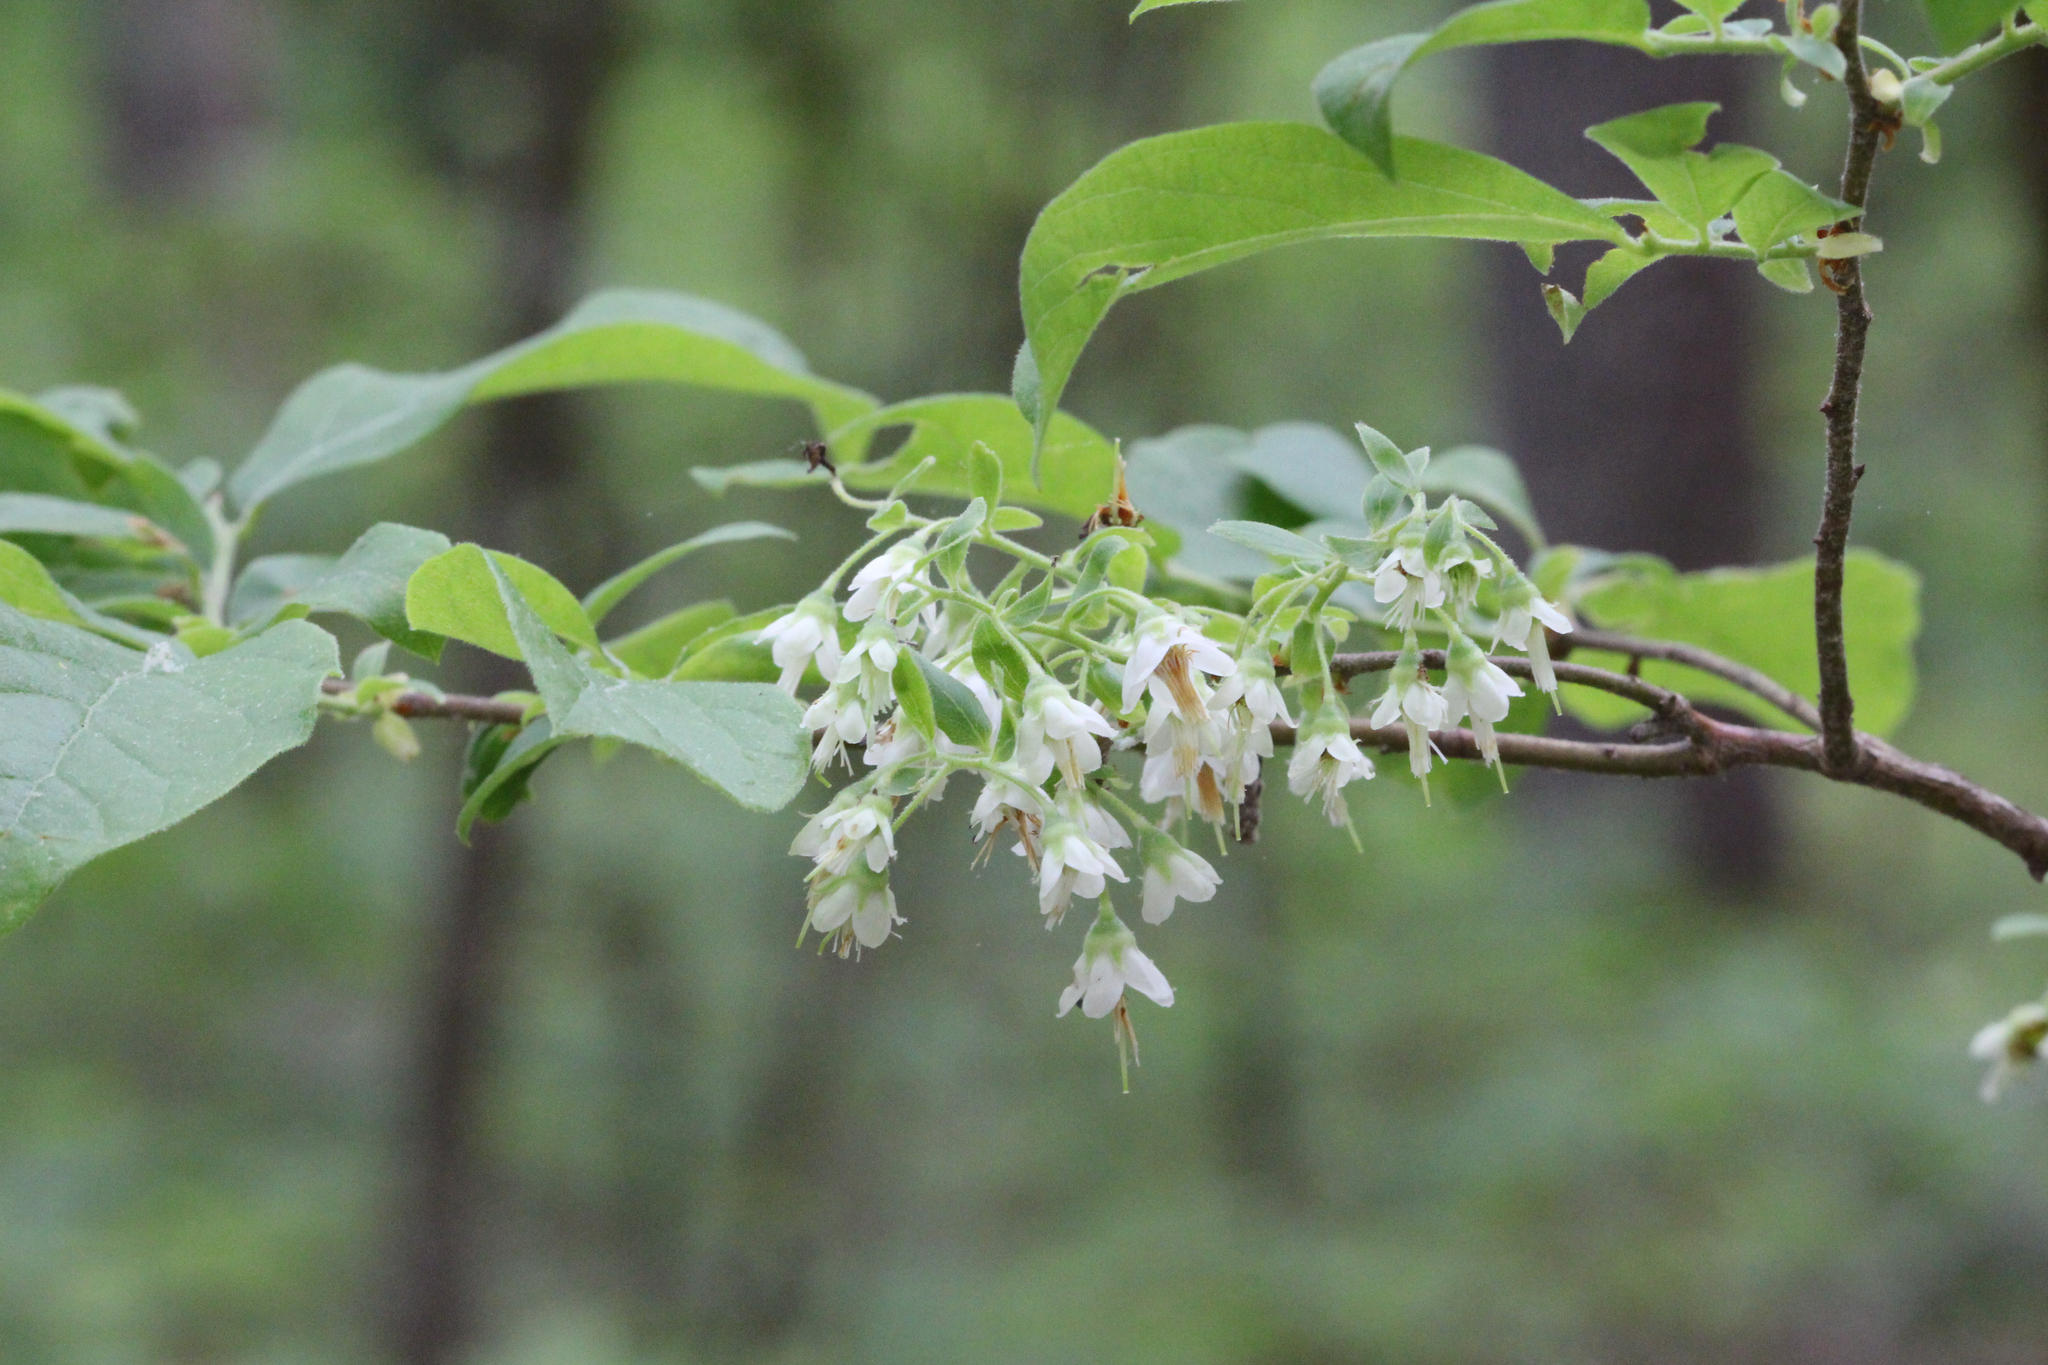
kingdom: Plantae
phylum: Tracheophyta
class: Magnoliopsida
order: Ericales
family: Ericaceae
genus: Vaccinium
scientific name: Vaccinium stamineum
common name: Deerberry
